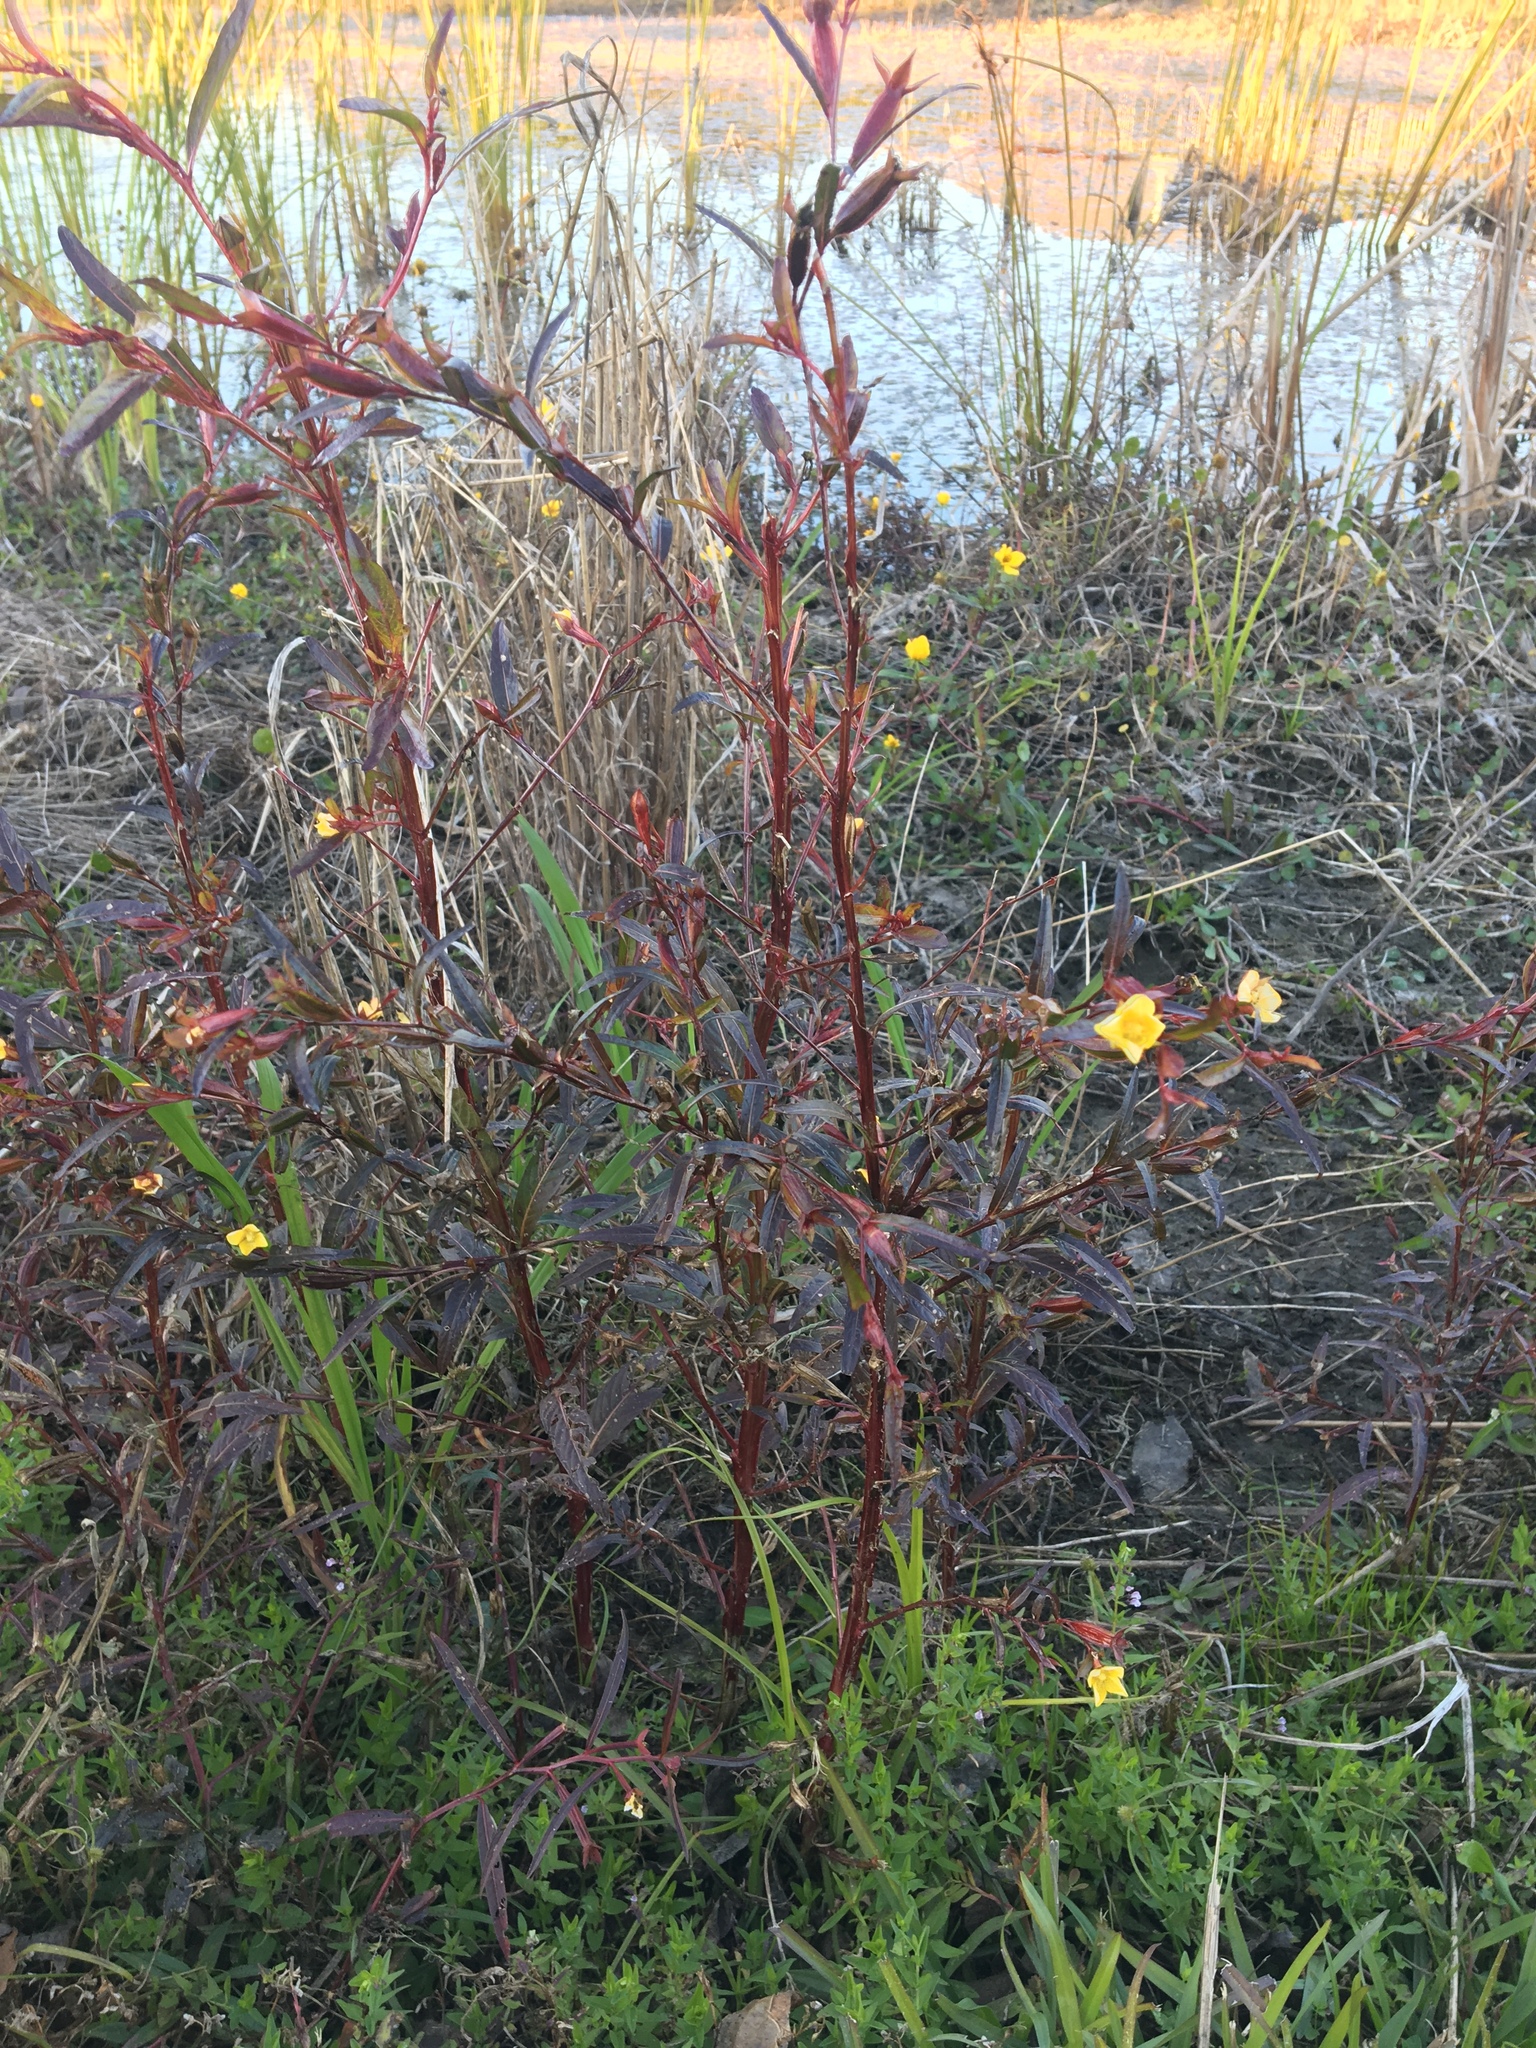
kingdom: Plantae
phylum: Tracheophyta
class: Magnoliopsida
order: Myrtales
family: Onagraceae
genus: Ludwigia
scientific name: Ludwigia decurrens
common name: Winged water-primrose
